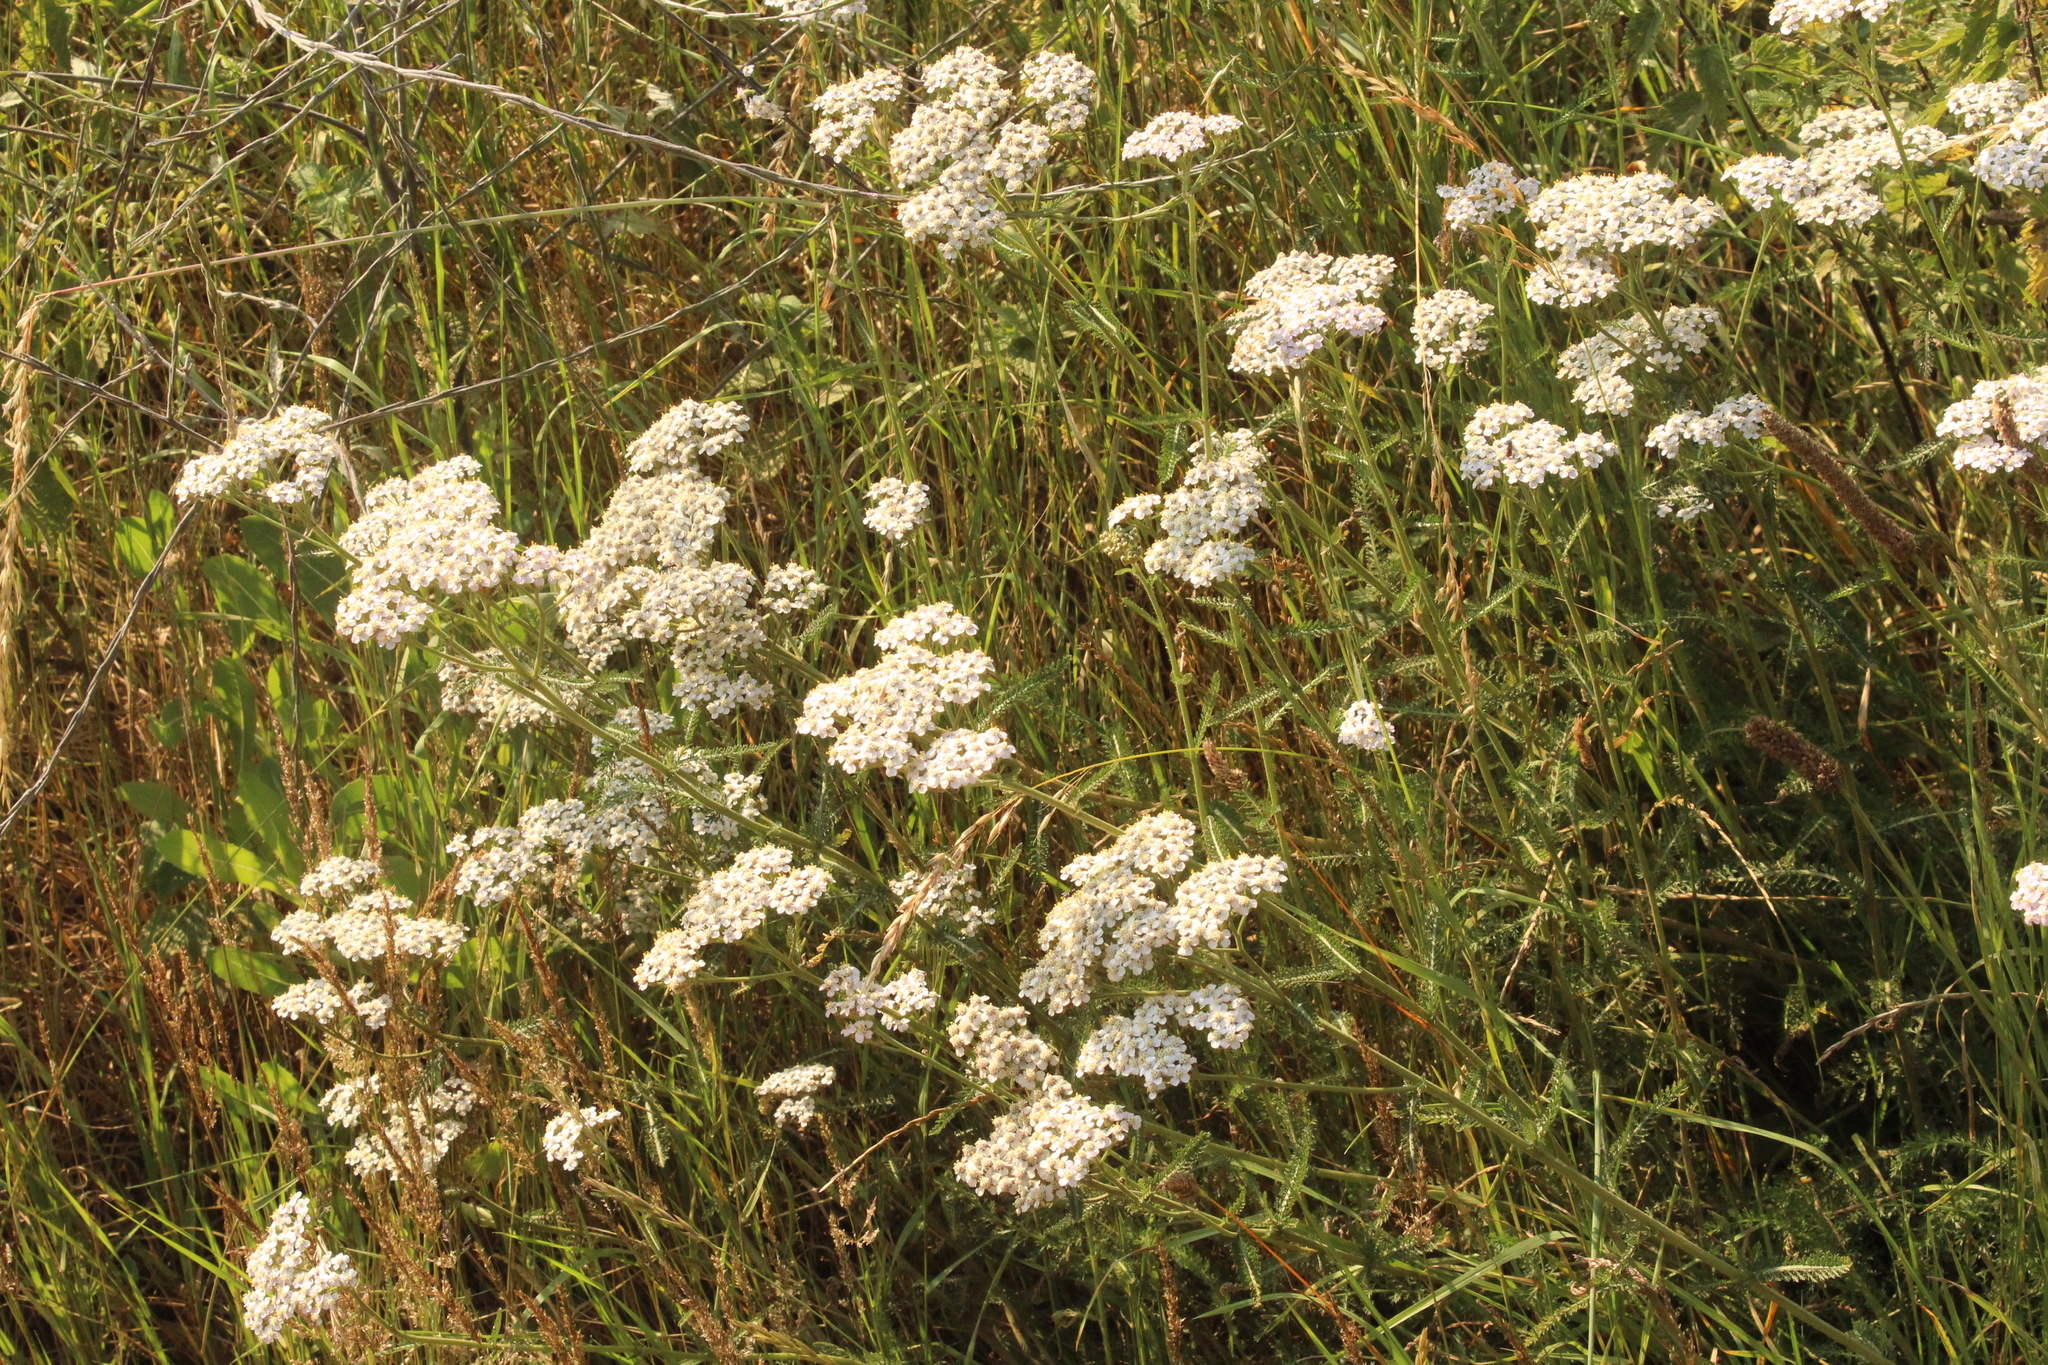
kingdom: Plantae
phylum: Tracheophyta
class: Magnoliopsida
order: Asterales
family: Asteraceae
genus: Achillea
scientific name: Achillea millefolium
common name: Yarrow
